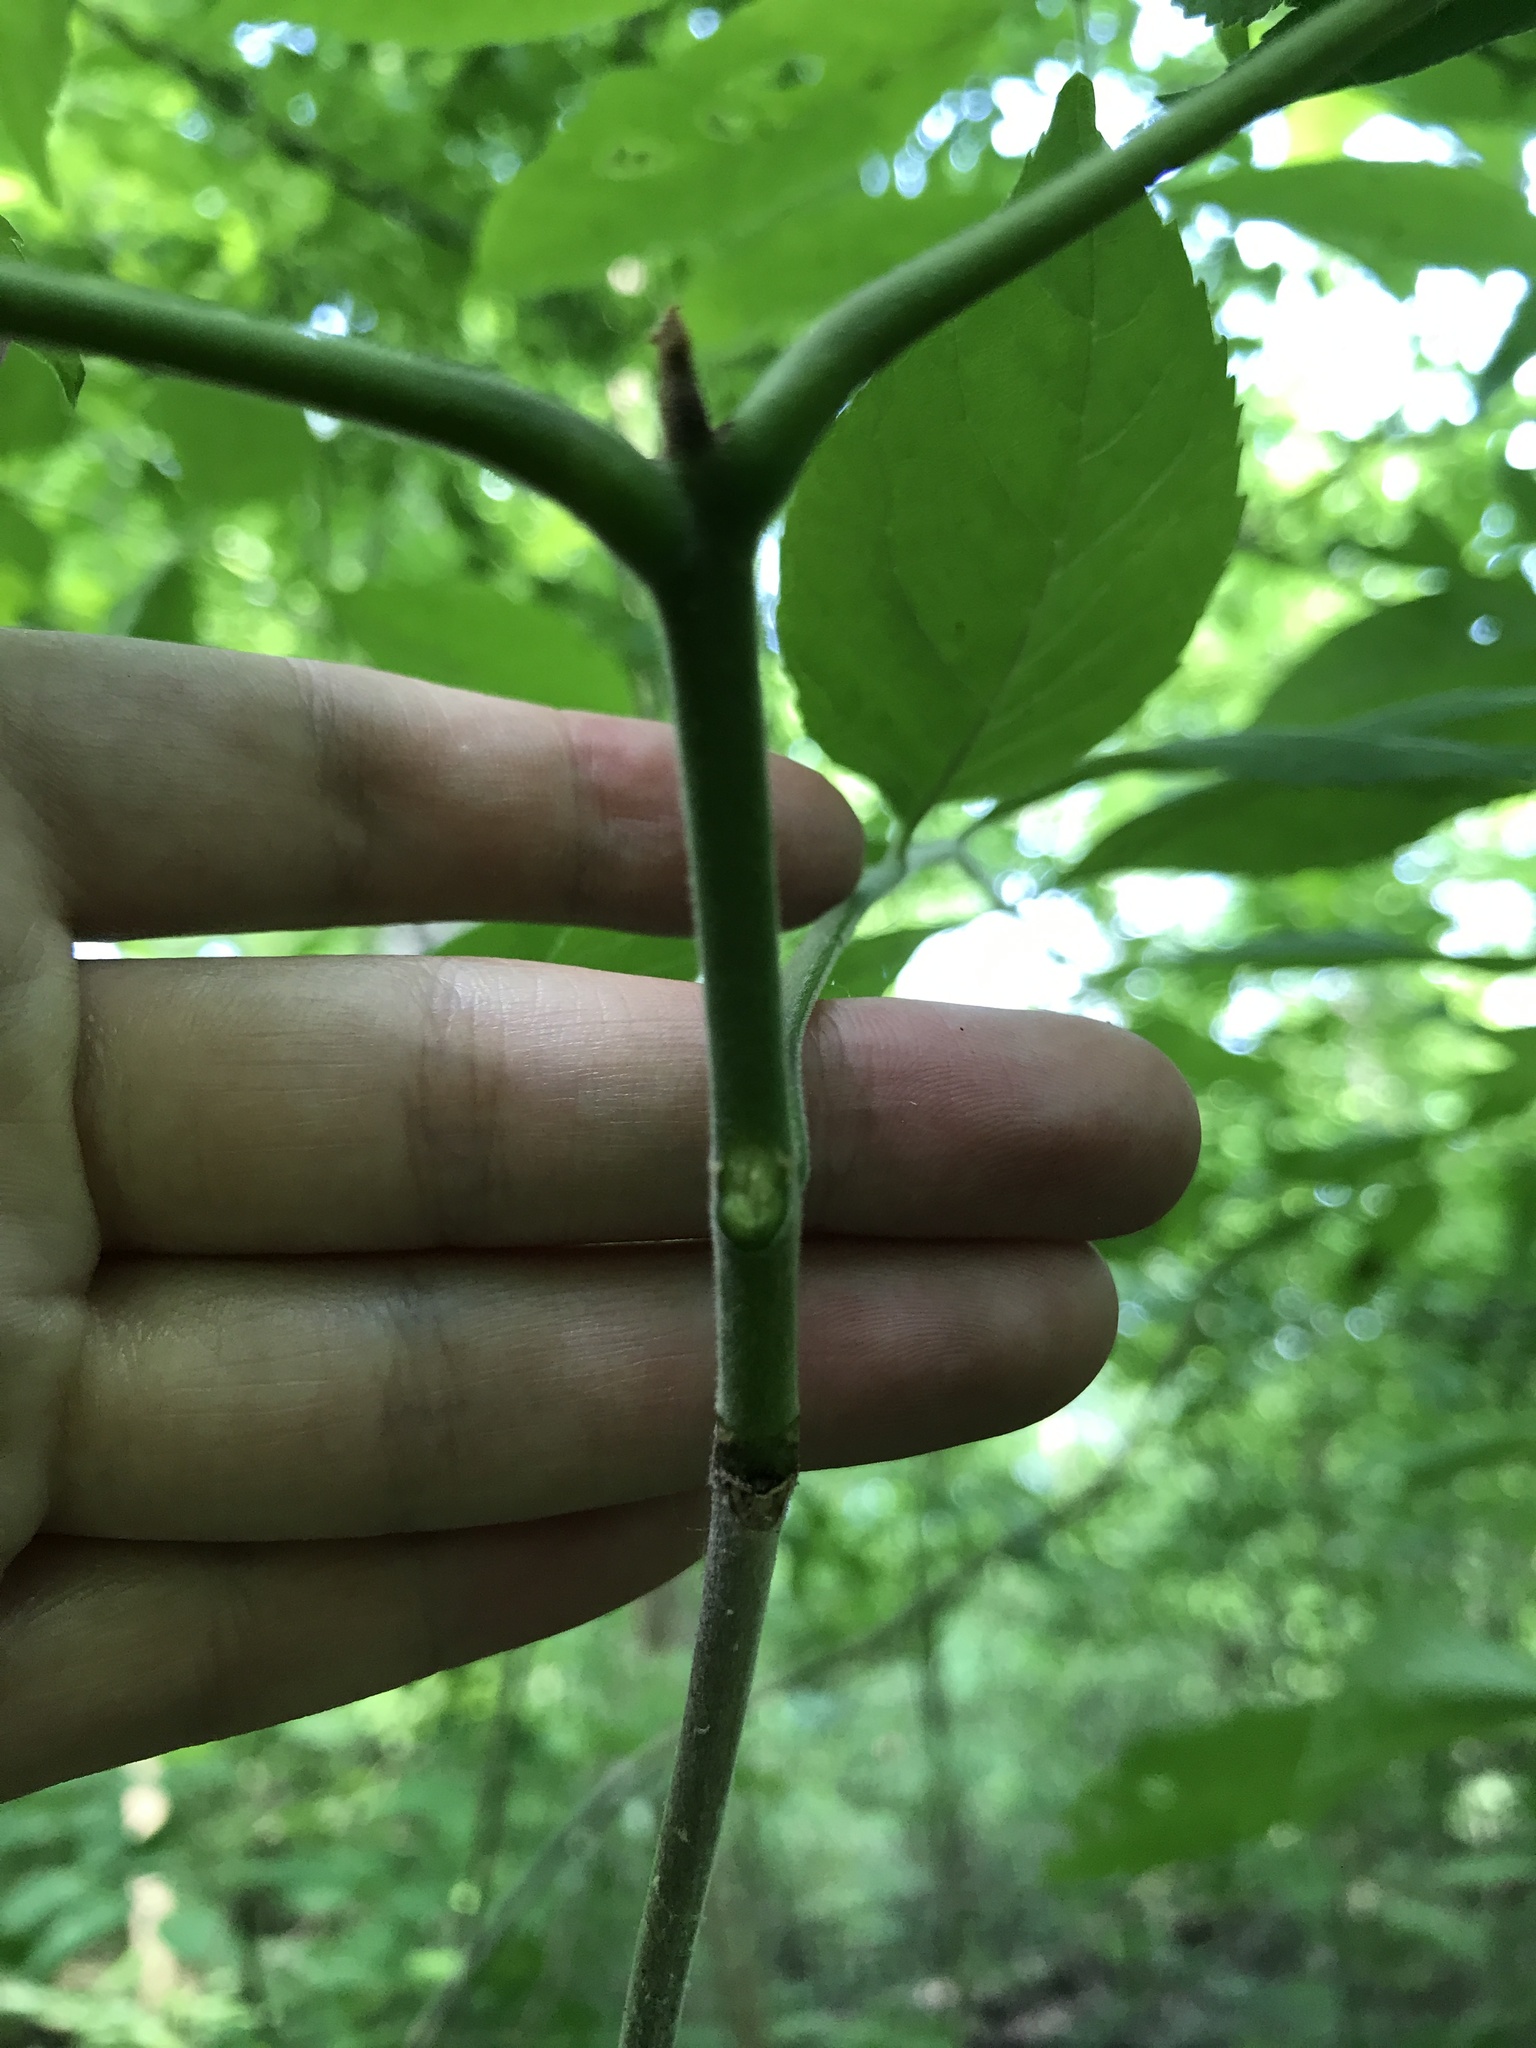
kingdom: Plantae
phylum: Tracheophyta
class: Magnoliopsida
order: Lamiales
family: Oleaceae
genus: Fraxinus
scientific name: Fraxinus pennsylvanica
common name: Green ash
